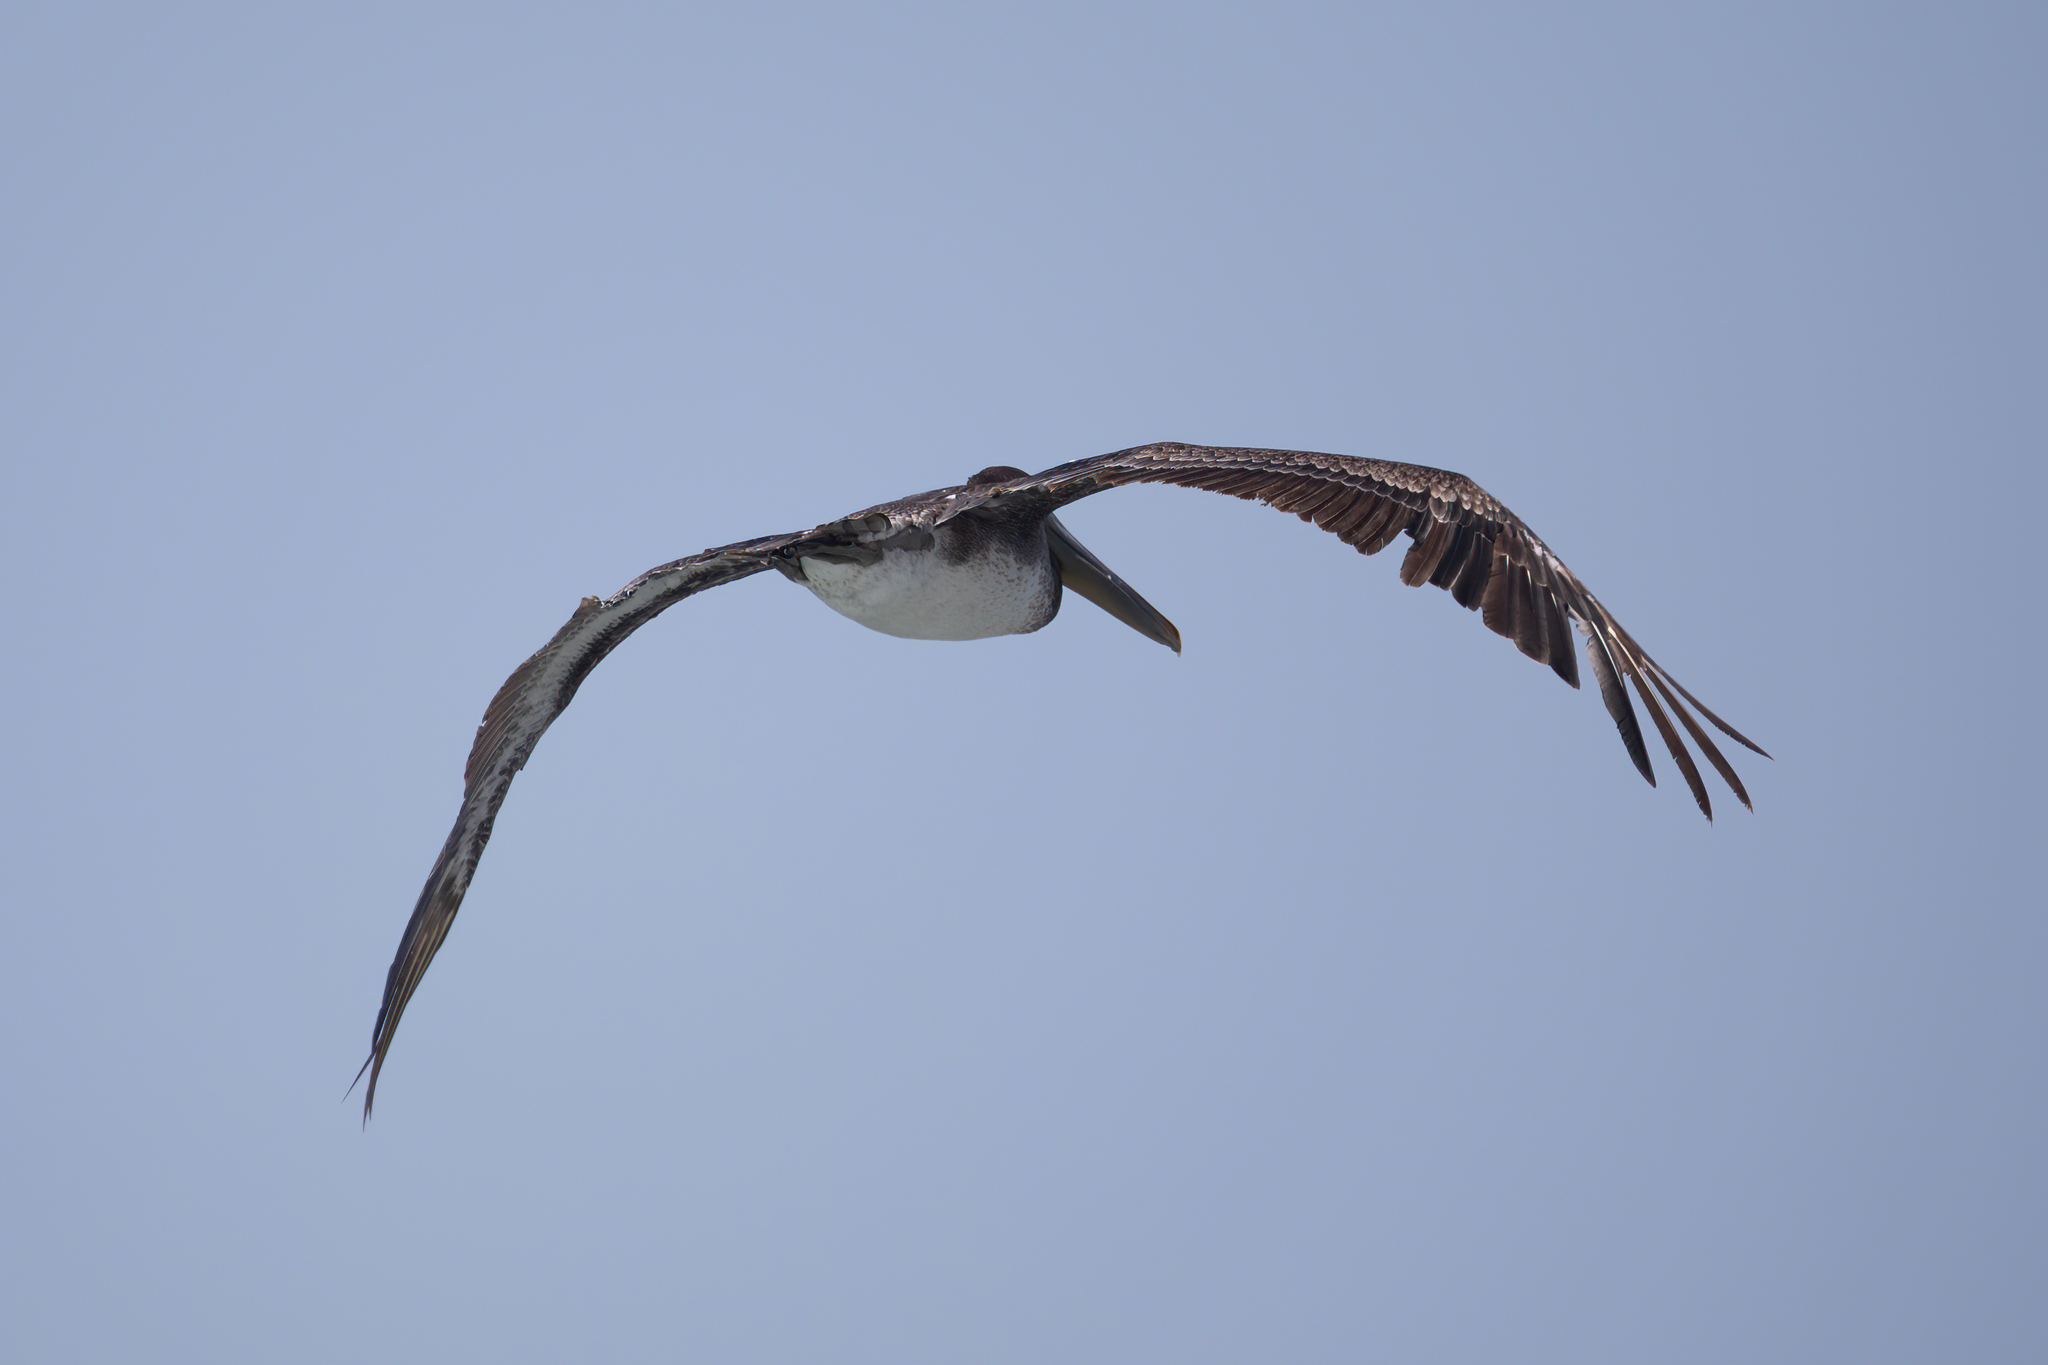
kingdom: Animalia
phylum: Chordata
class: Aves
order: Pelecaniformes
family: Pelecanidae
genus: Pelecanus
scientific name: Pelecanus occidentalis
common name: Brown pelican
